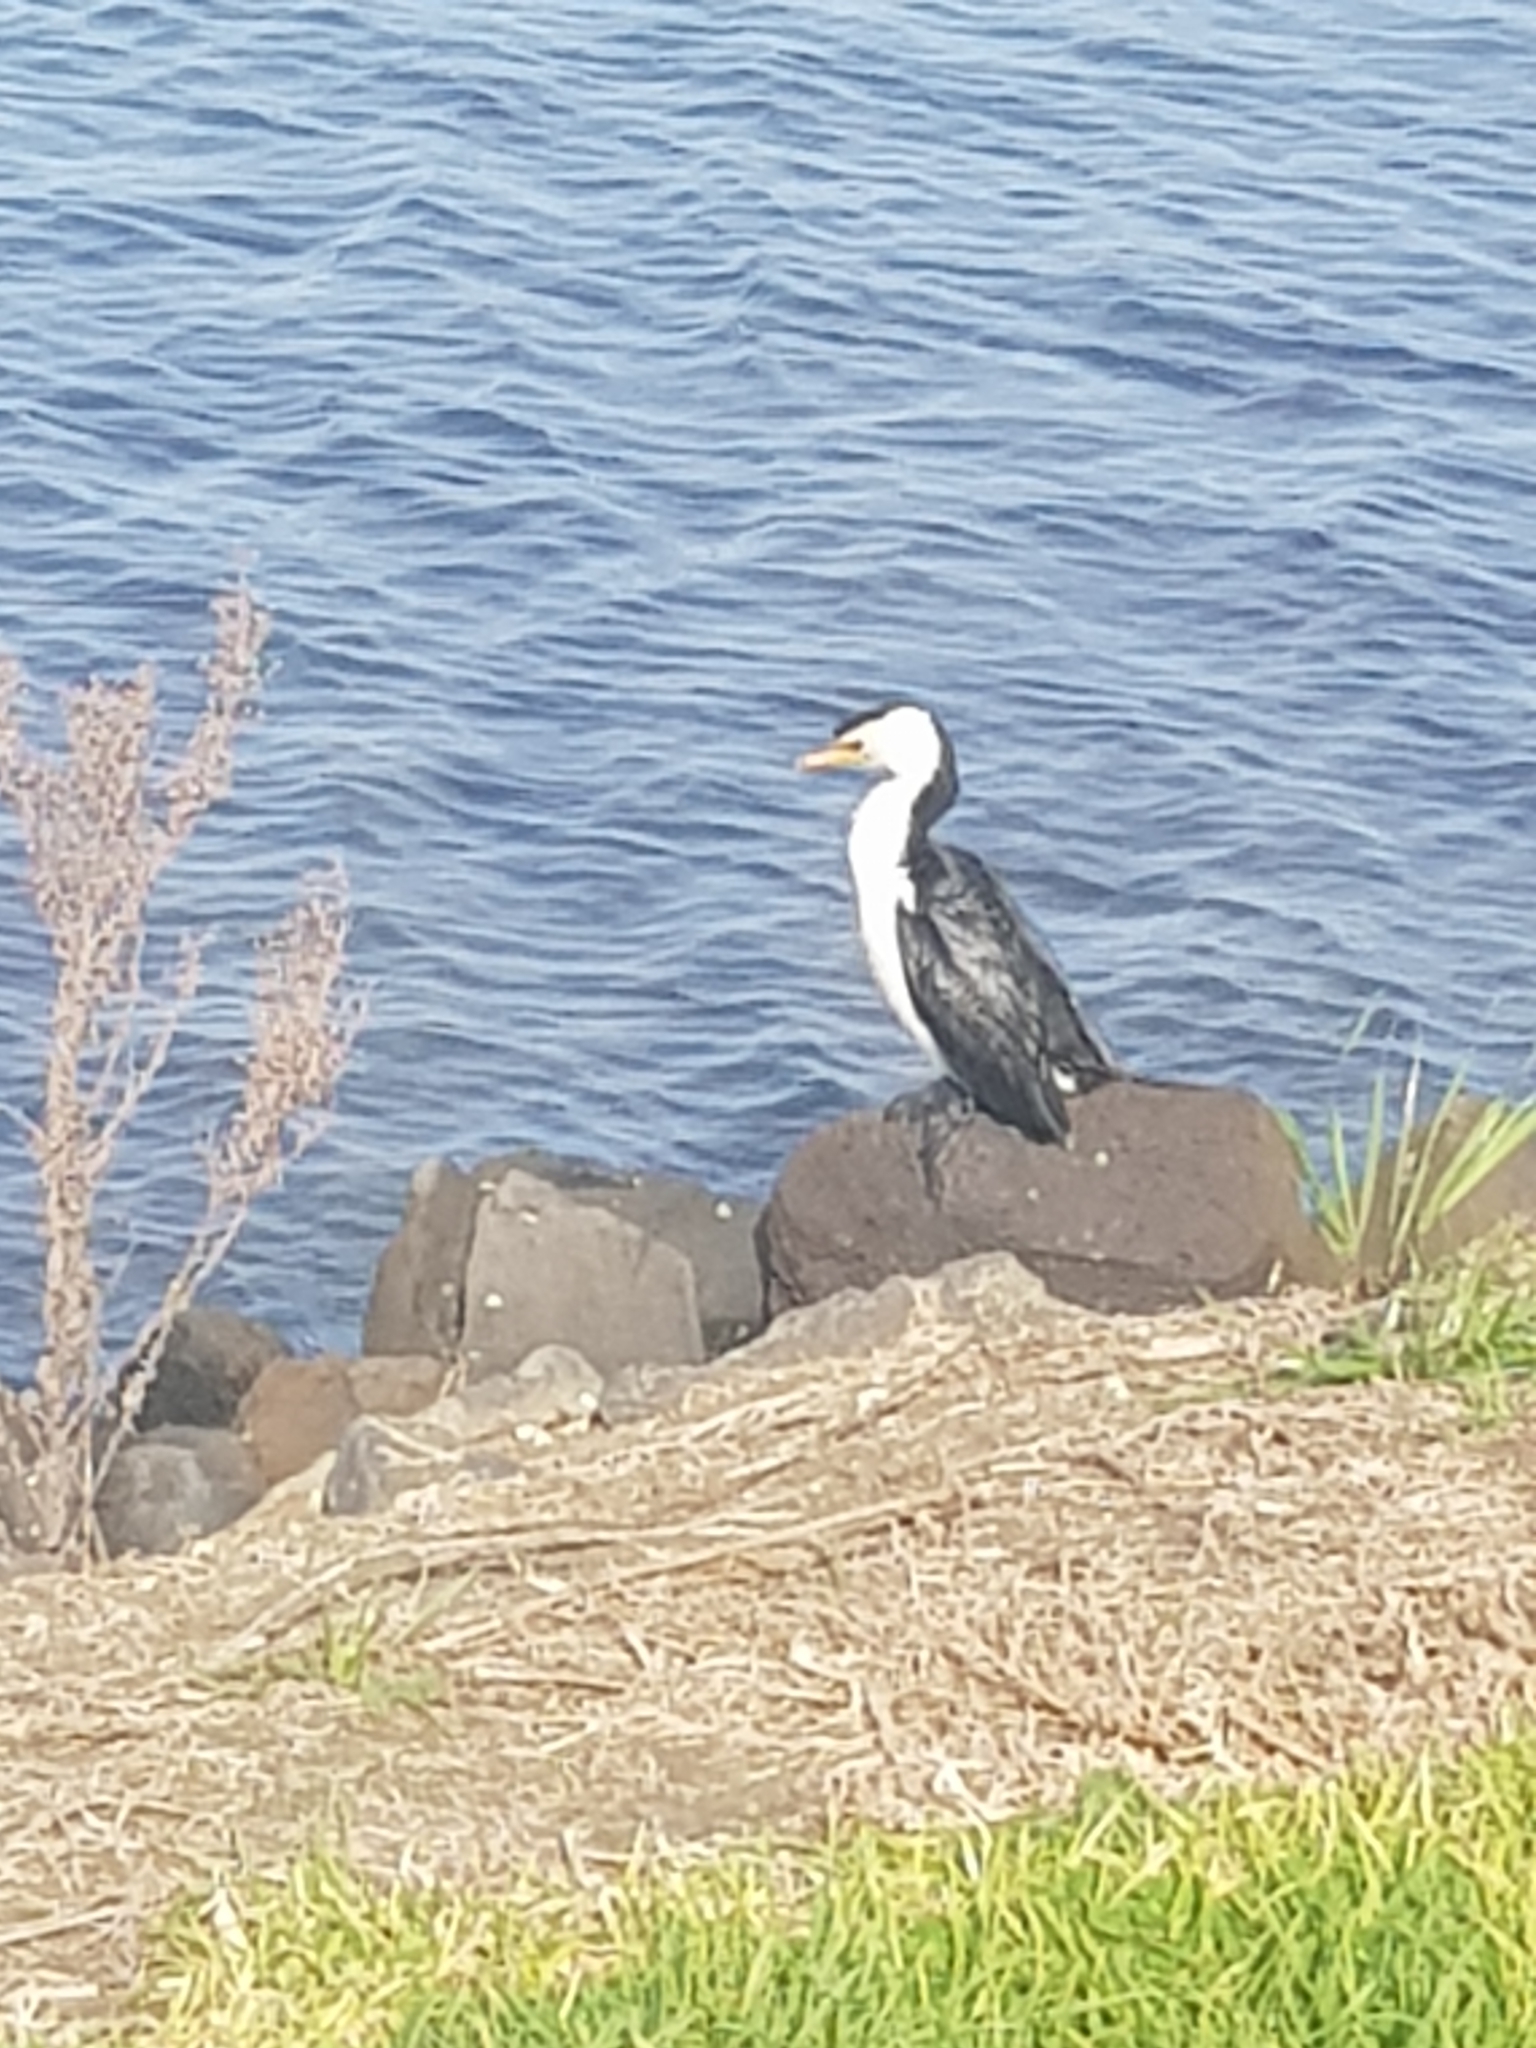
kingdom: Animalia
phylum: Chordata
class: Aves
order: Suliformes
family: Phalacrocoracidae
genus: Microcarbo
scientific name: Microcarbo melanoleucos
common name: Little pied cormorant
